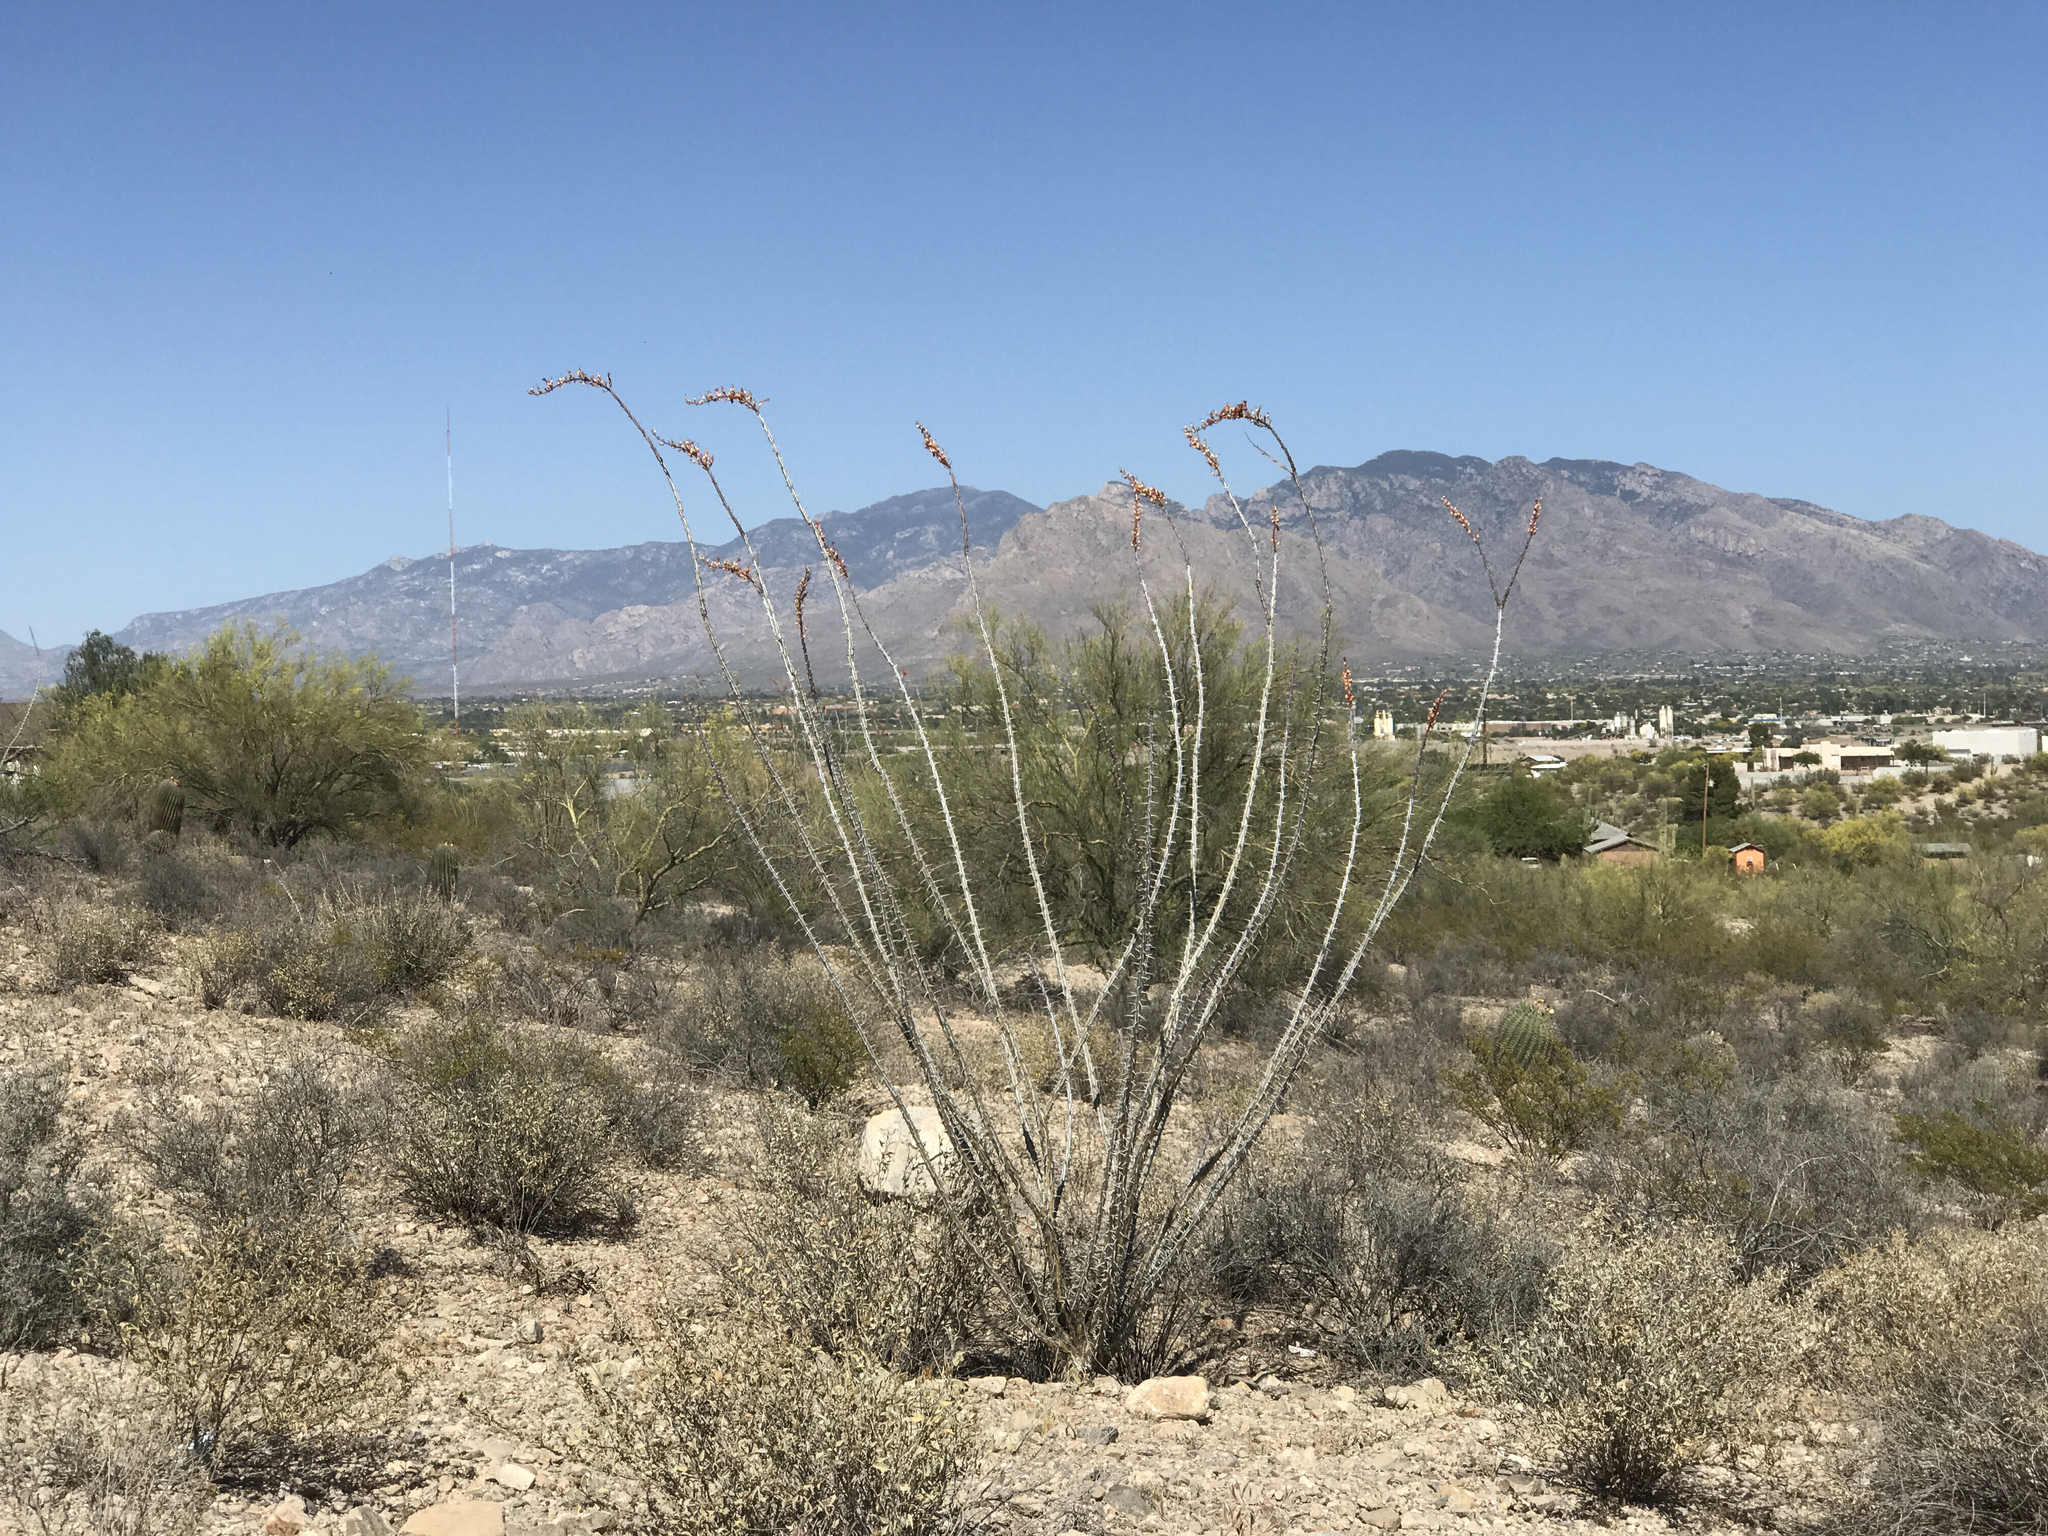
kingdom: Plantae
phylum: Tracheophyta
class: Magnoliopsida
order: Ericales
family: Fouquieriaceae
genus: Fouquieria
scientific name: Fouquieria splendens
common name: Vine-cactus
